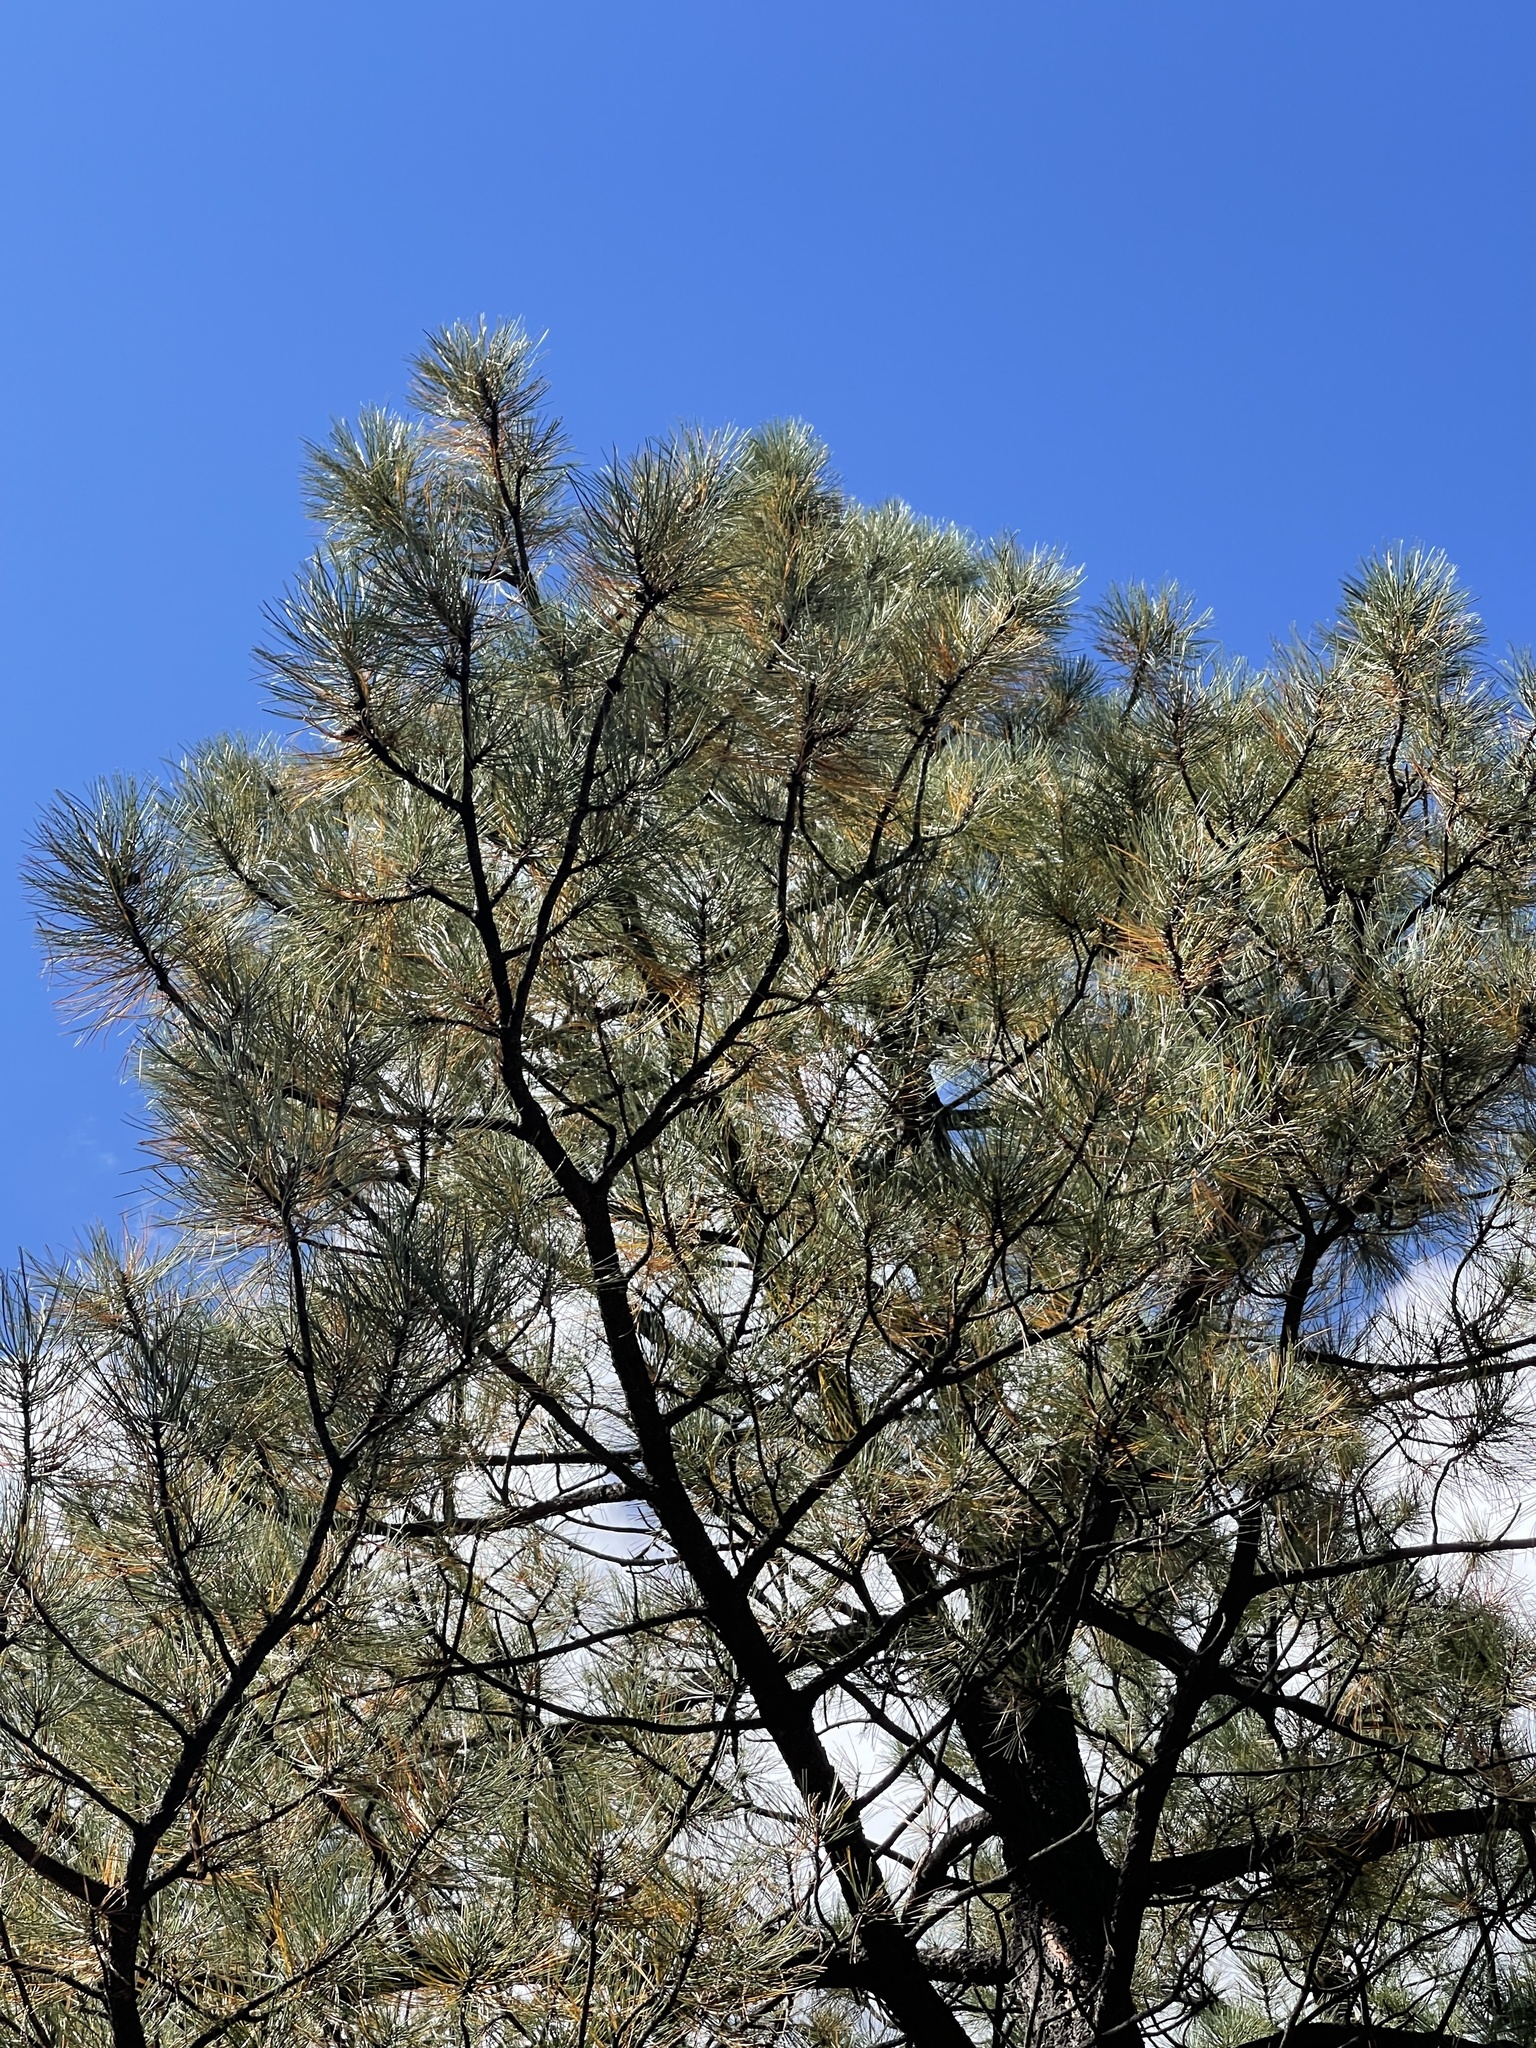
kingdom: Plantae
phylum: Tracheophyta
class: Pinopsida
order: Pinales
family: Pinaceae
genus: Pinus
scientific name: Pinus ponderosa
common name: Western yellow-pine
